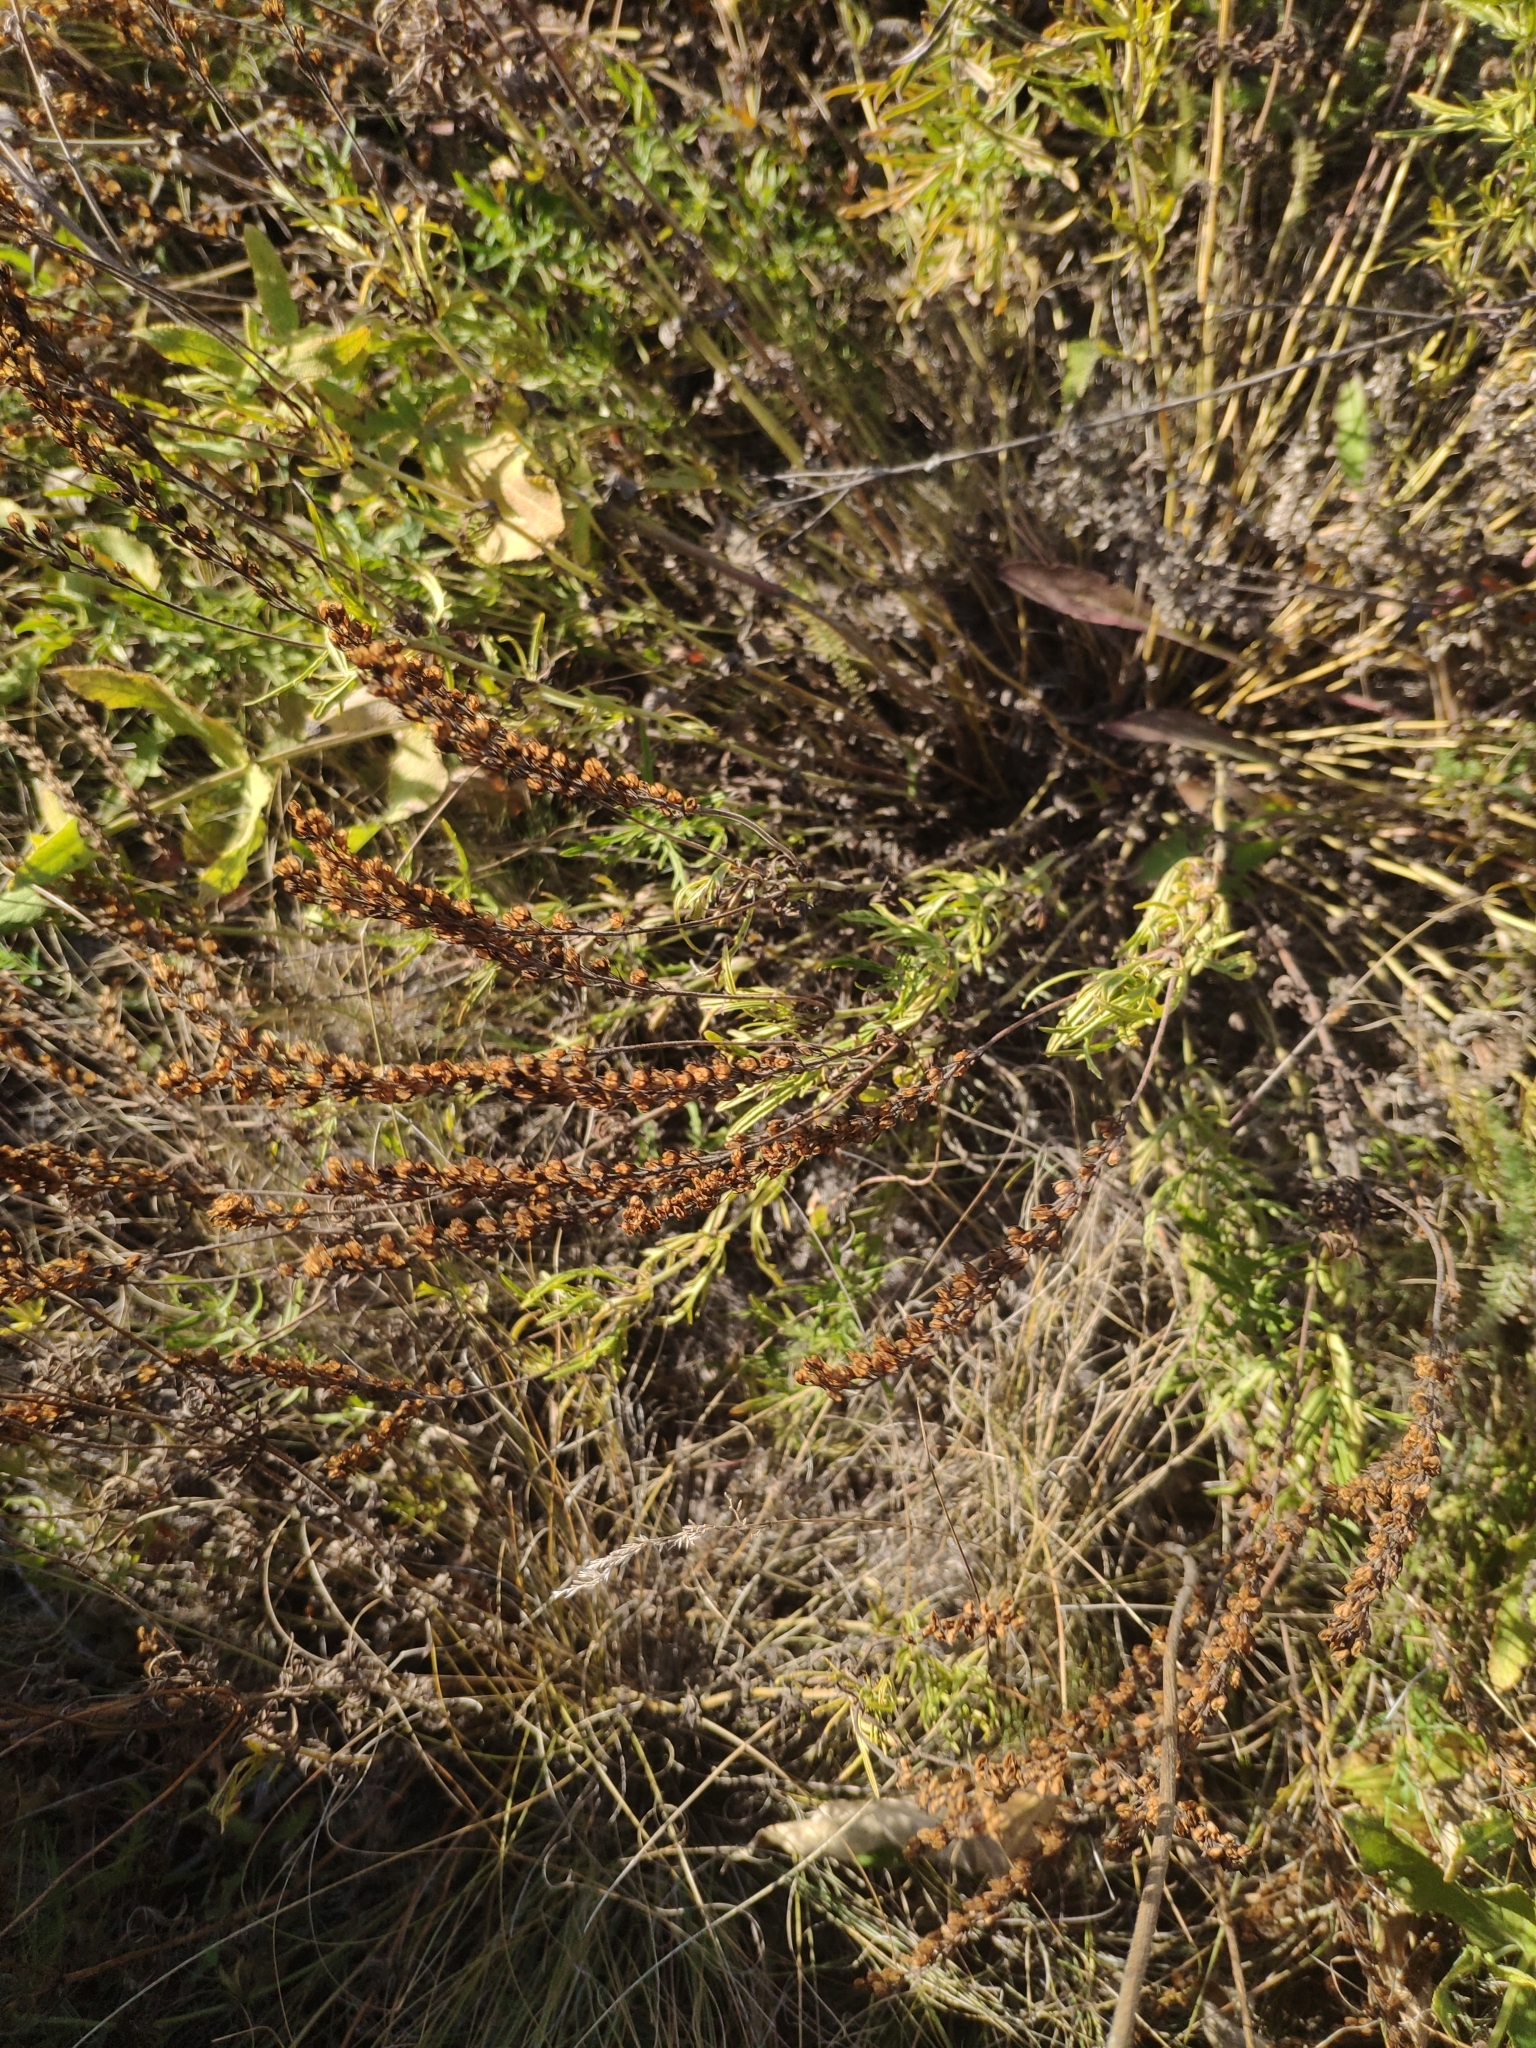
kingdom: Plantae
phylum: Tracheophyta
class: Magnoliopsida
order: Lamiales
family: Plantaginaceae
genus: Veronica
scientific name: Veronica austriaca
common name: Large speedwell
